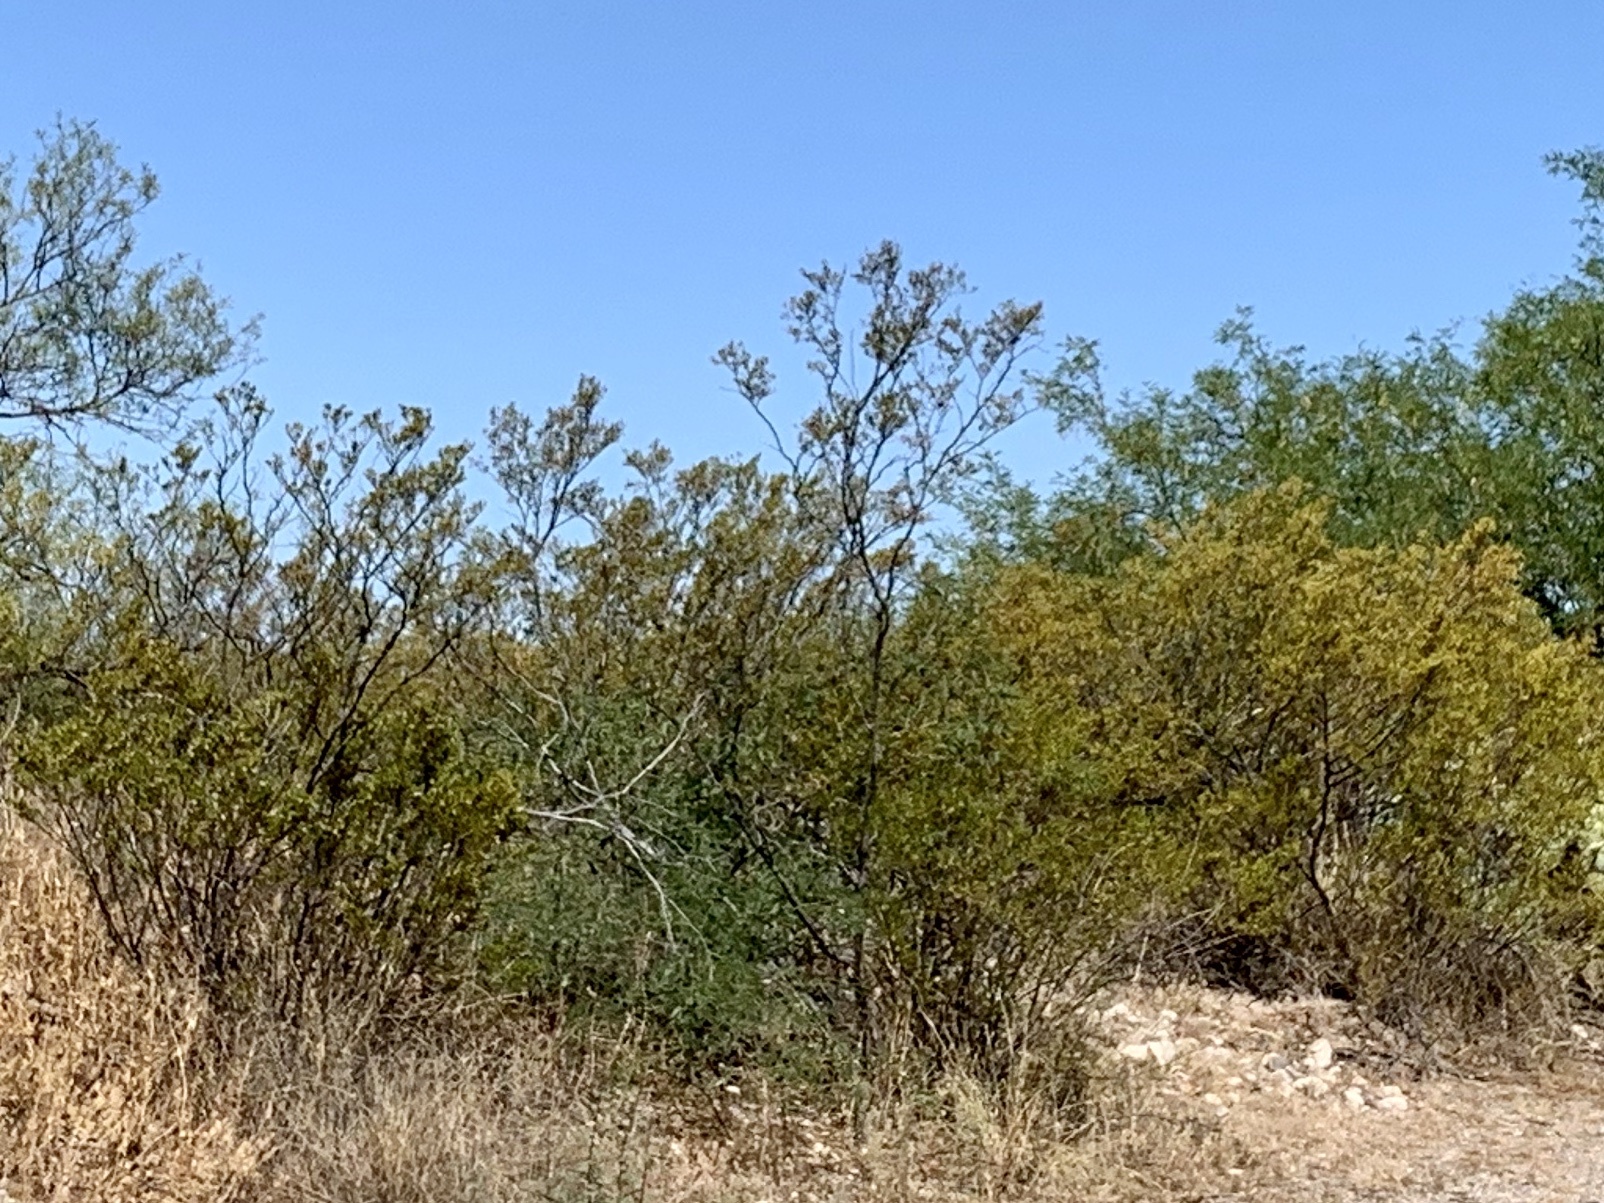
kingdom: Plantae
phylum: Tracheophyta
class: Magnoliopsida
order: Zygophyllales
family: Zygophyllaceae
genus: Larrea
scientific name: Larrea tridentata
